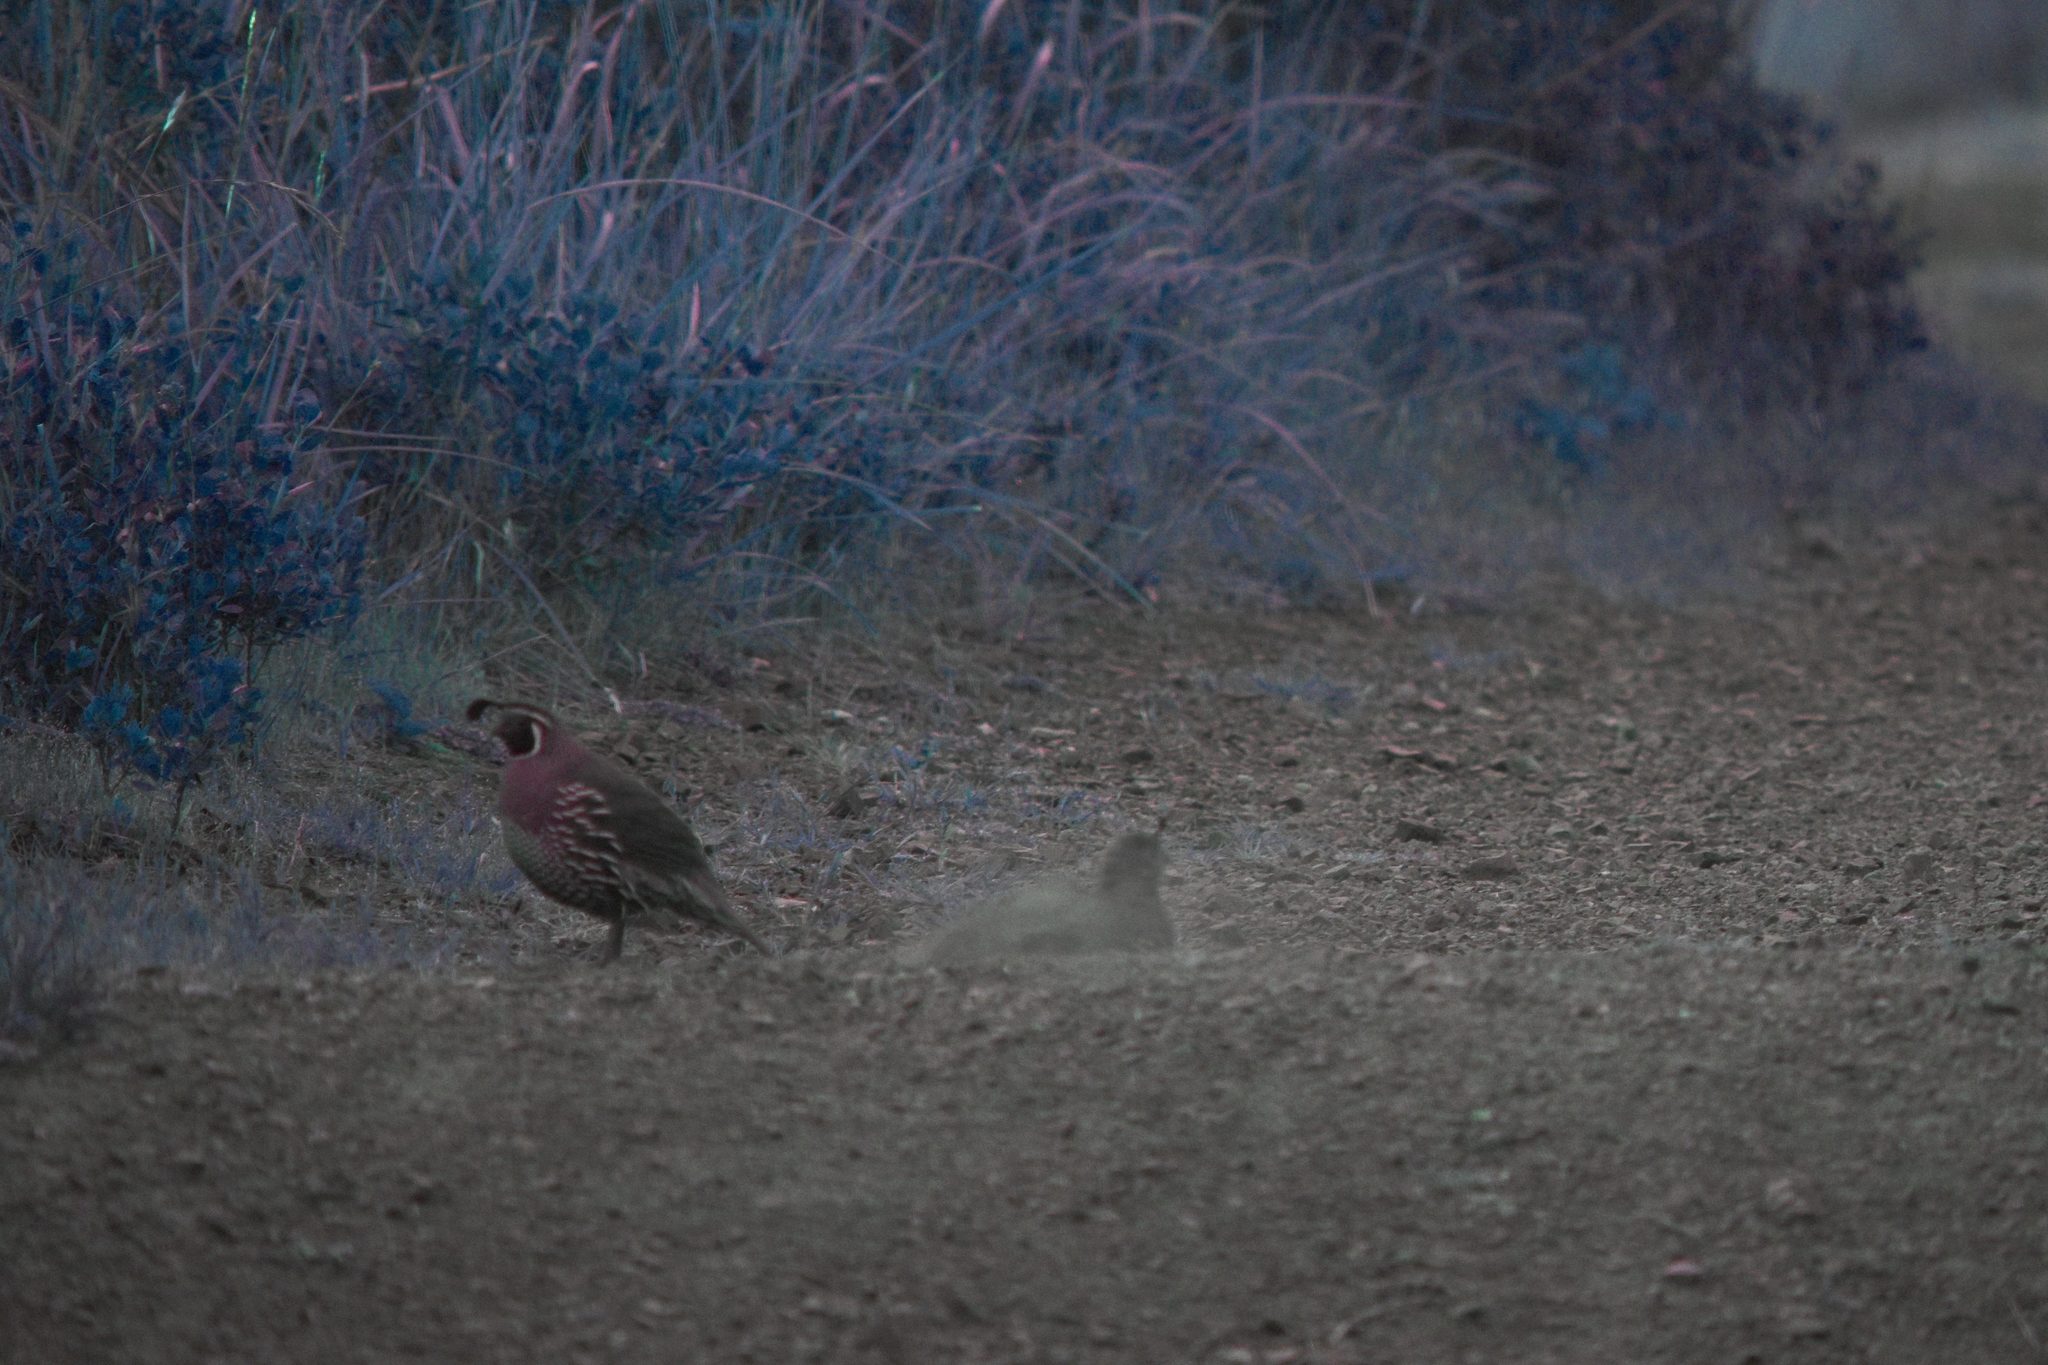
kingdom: Animalia
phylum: Chordata
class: Aves
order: Galliformes
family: Odontophoridae
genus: Callipepla
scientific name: Callipepla californica
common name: California quail
